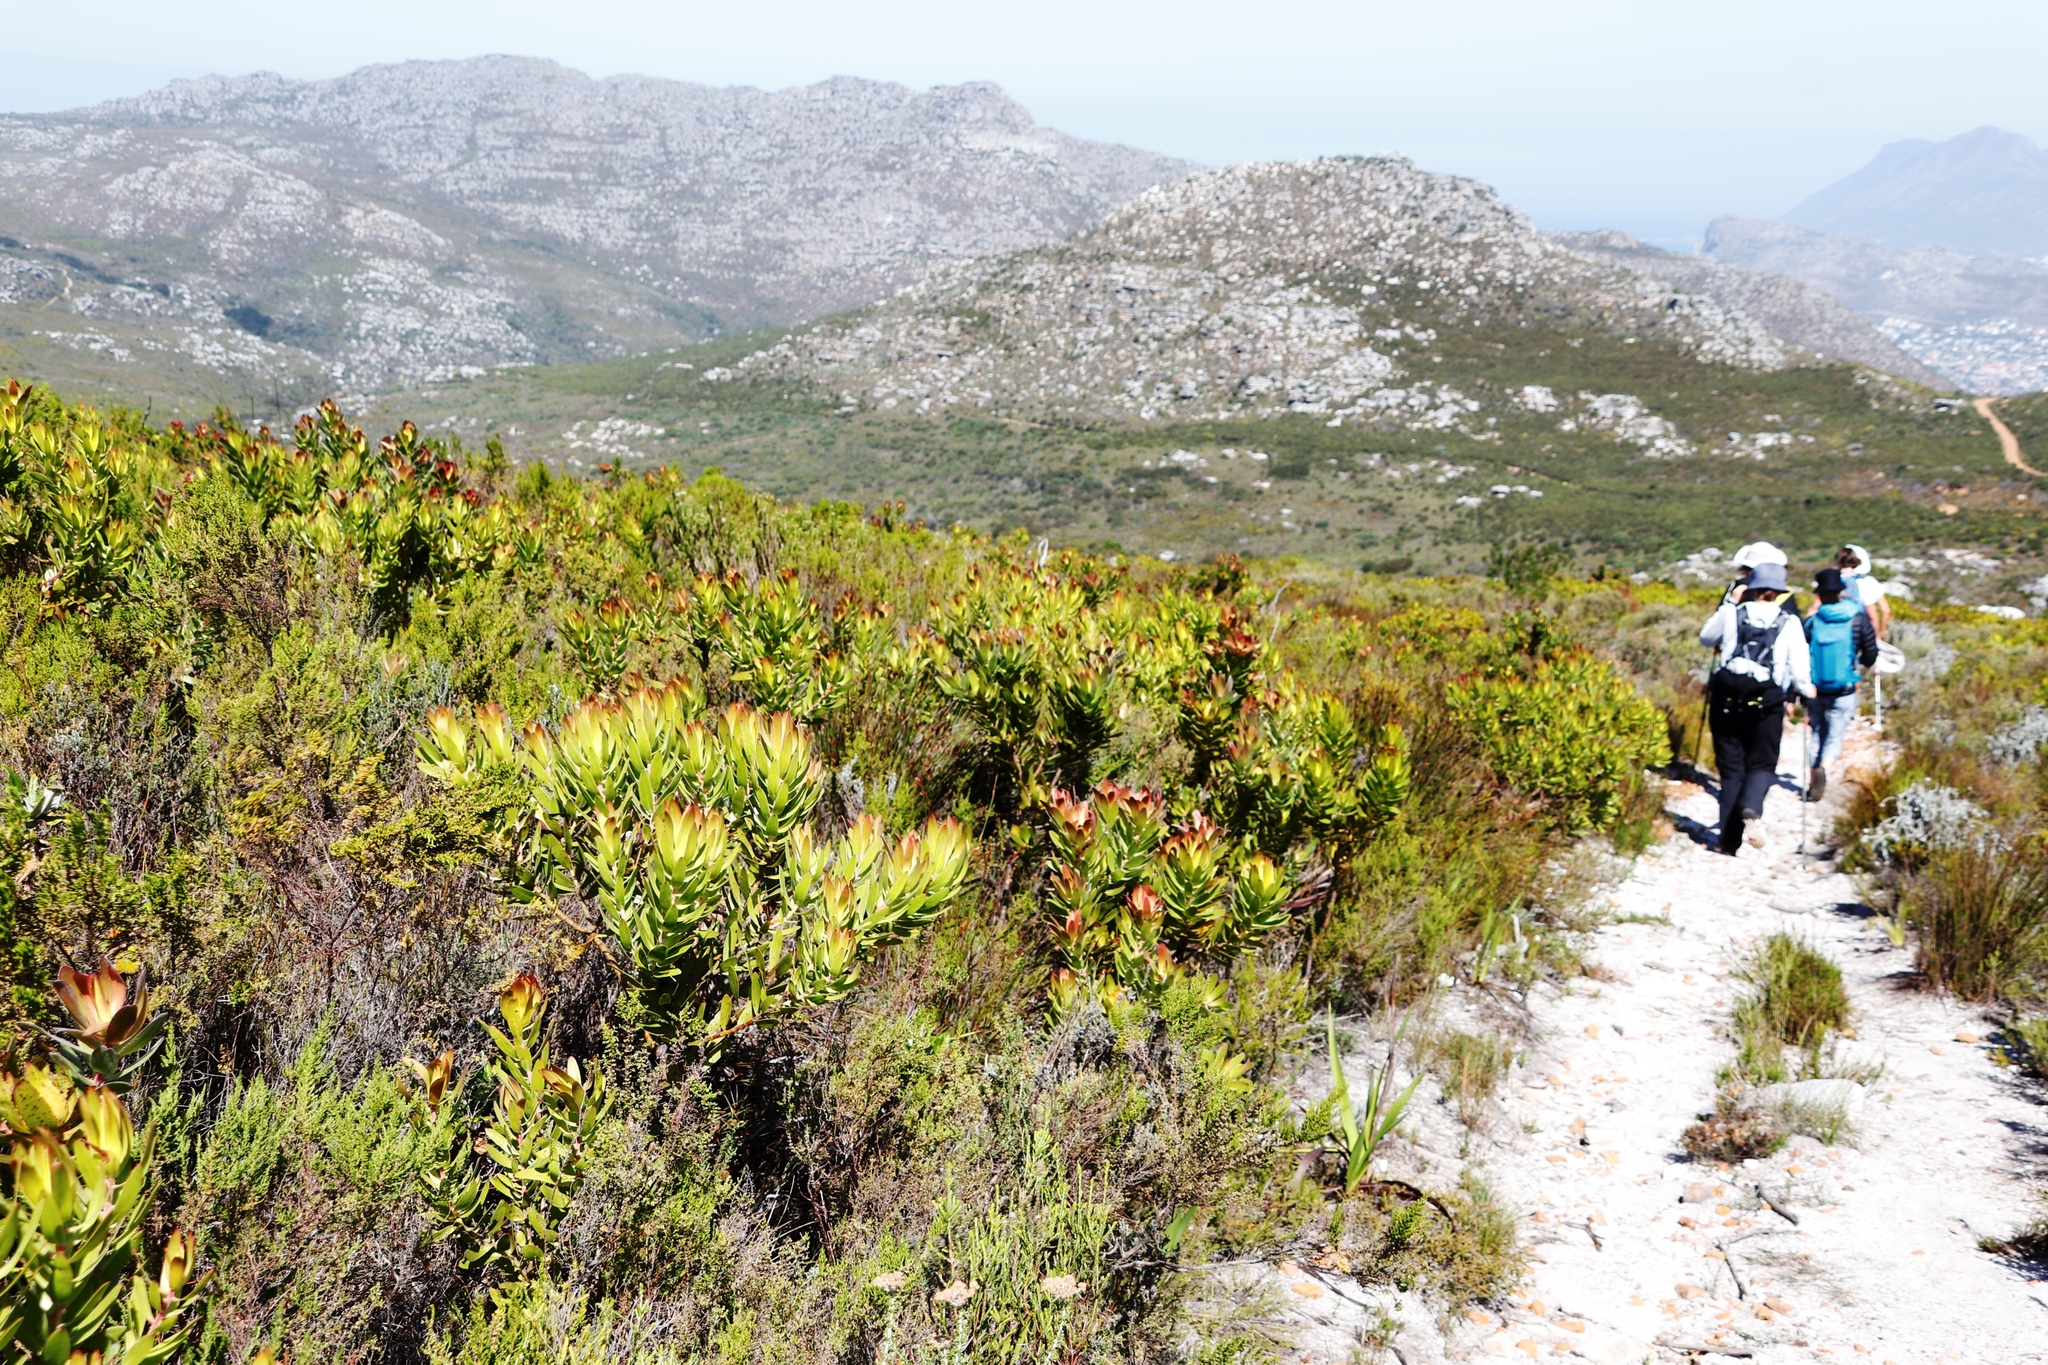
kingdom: Plantae
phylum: Tracheophyta
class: Magnoliopsida
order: Proteales
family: Proteaceae
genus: Leucadendron
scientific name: Leucadendron laureolum
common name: Golden sunshinebush
